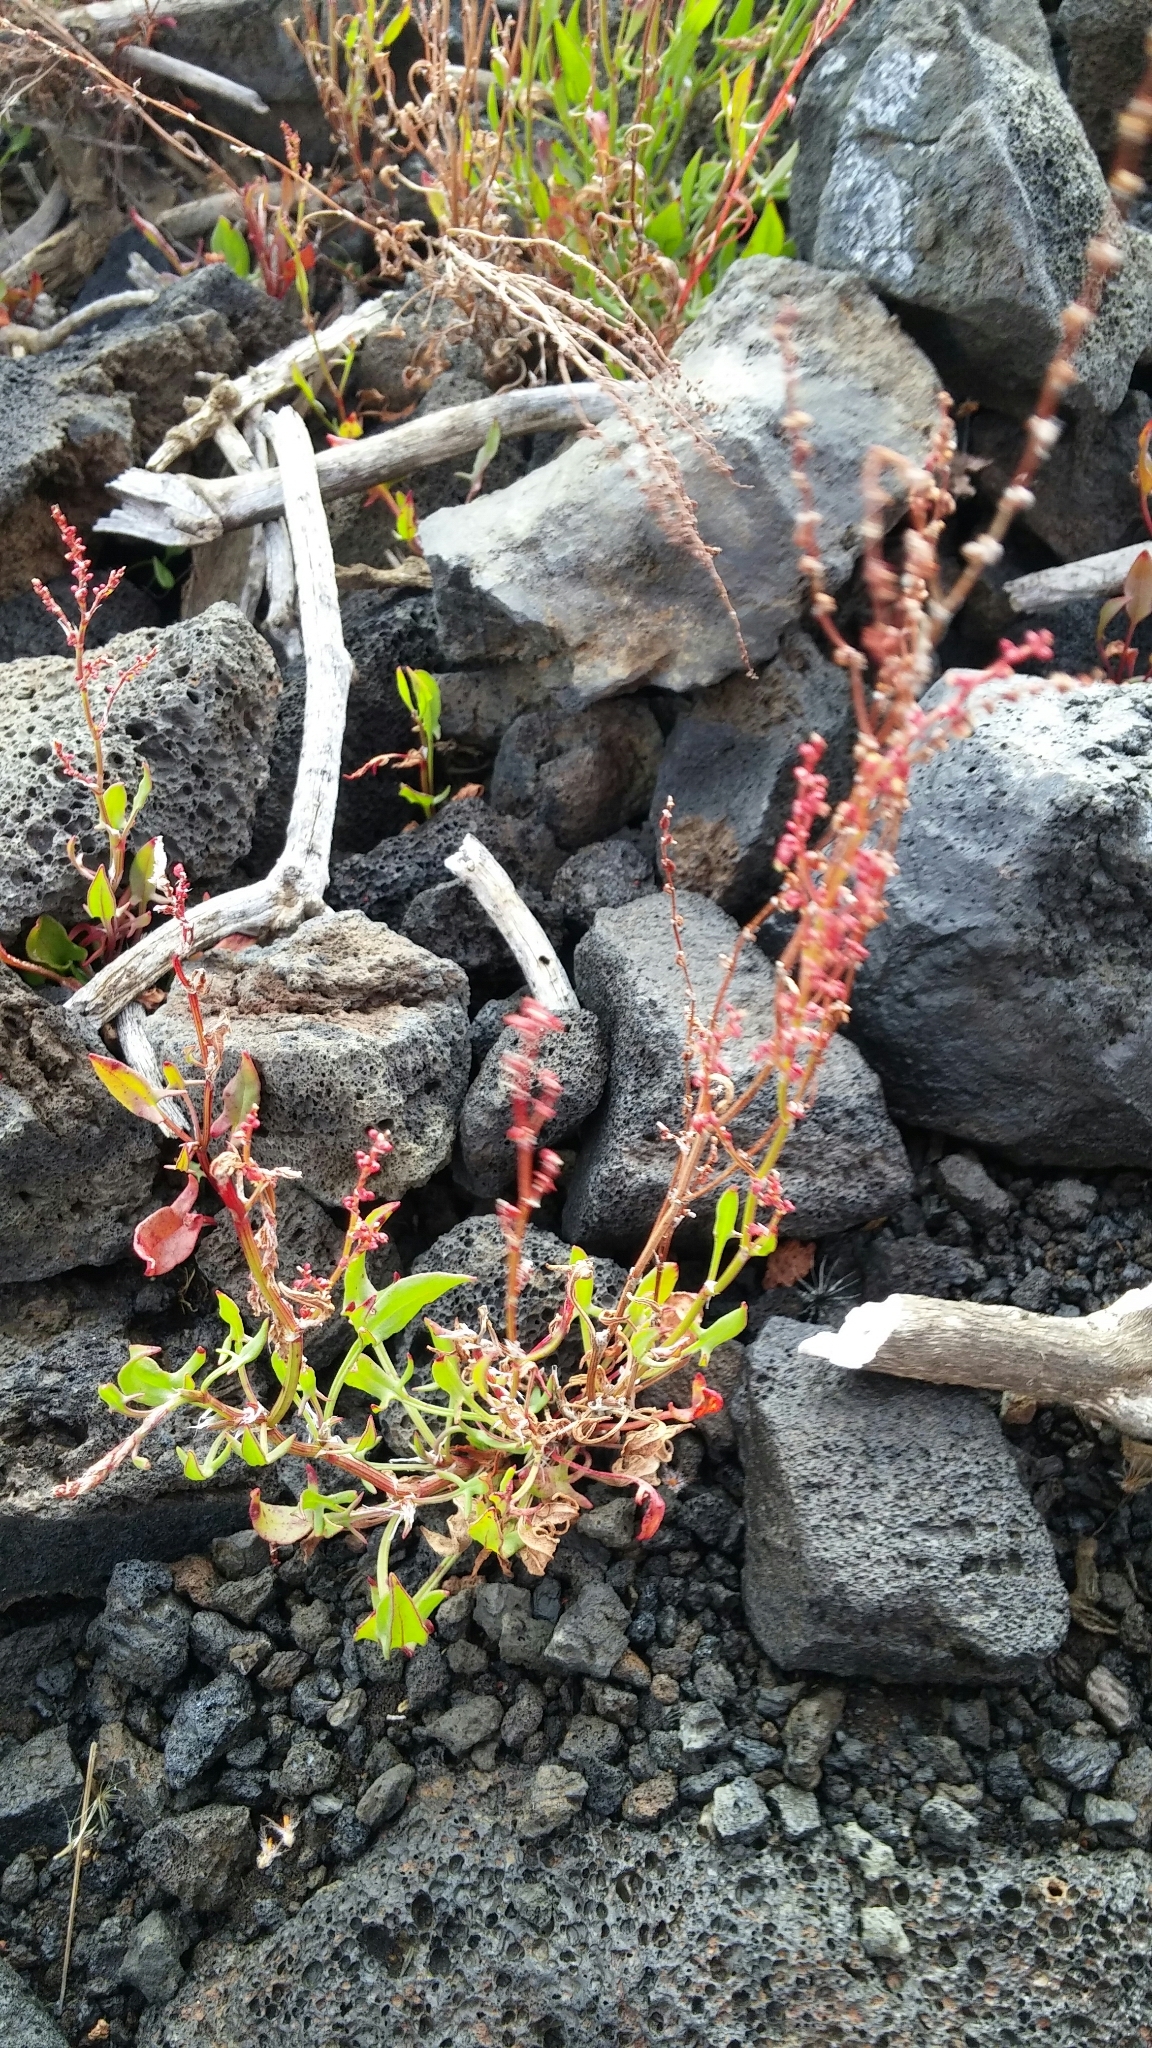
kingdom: Plantae
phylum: Tracheophyta
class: Magnoliopsida
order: Caryophyllales
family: Polygonaceae
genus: Rumex
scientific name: Rumex acetosella
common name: Common sheep sorrel
